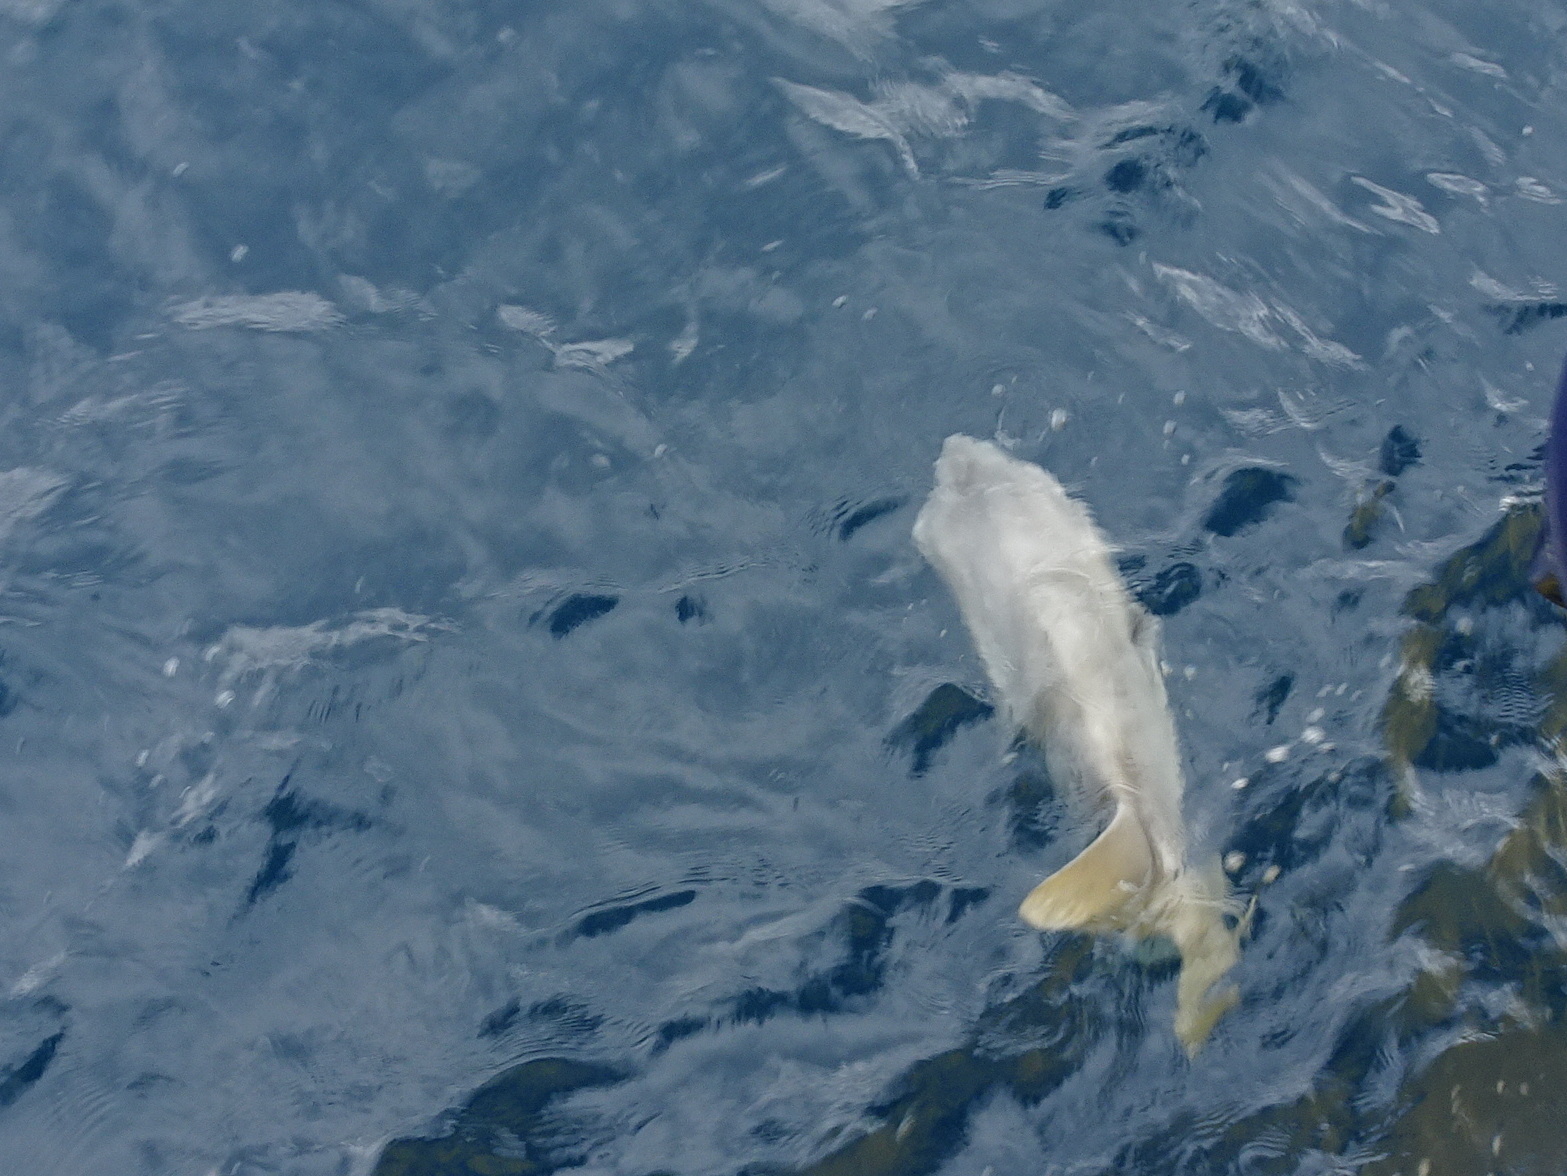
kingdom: Animalia
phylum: Chordata
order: Tetraodontiformes
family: Molidae
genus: Mola
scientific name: Mola mola
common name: Ocean sunfish
